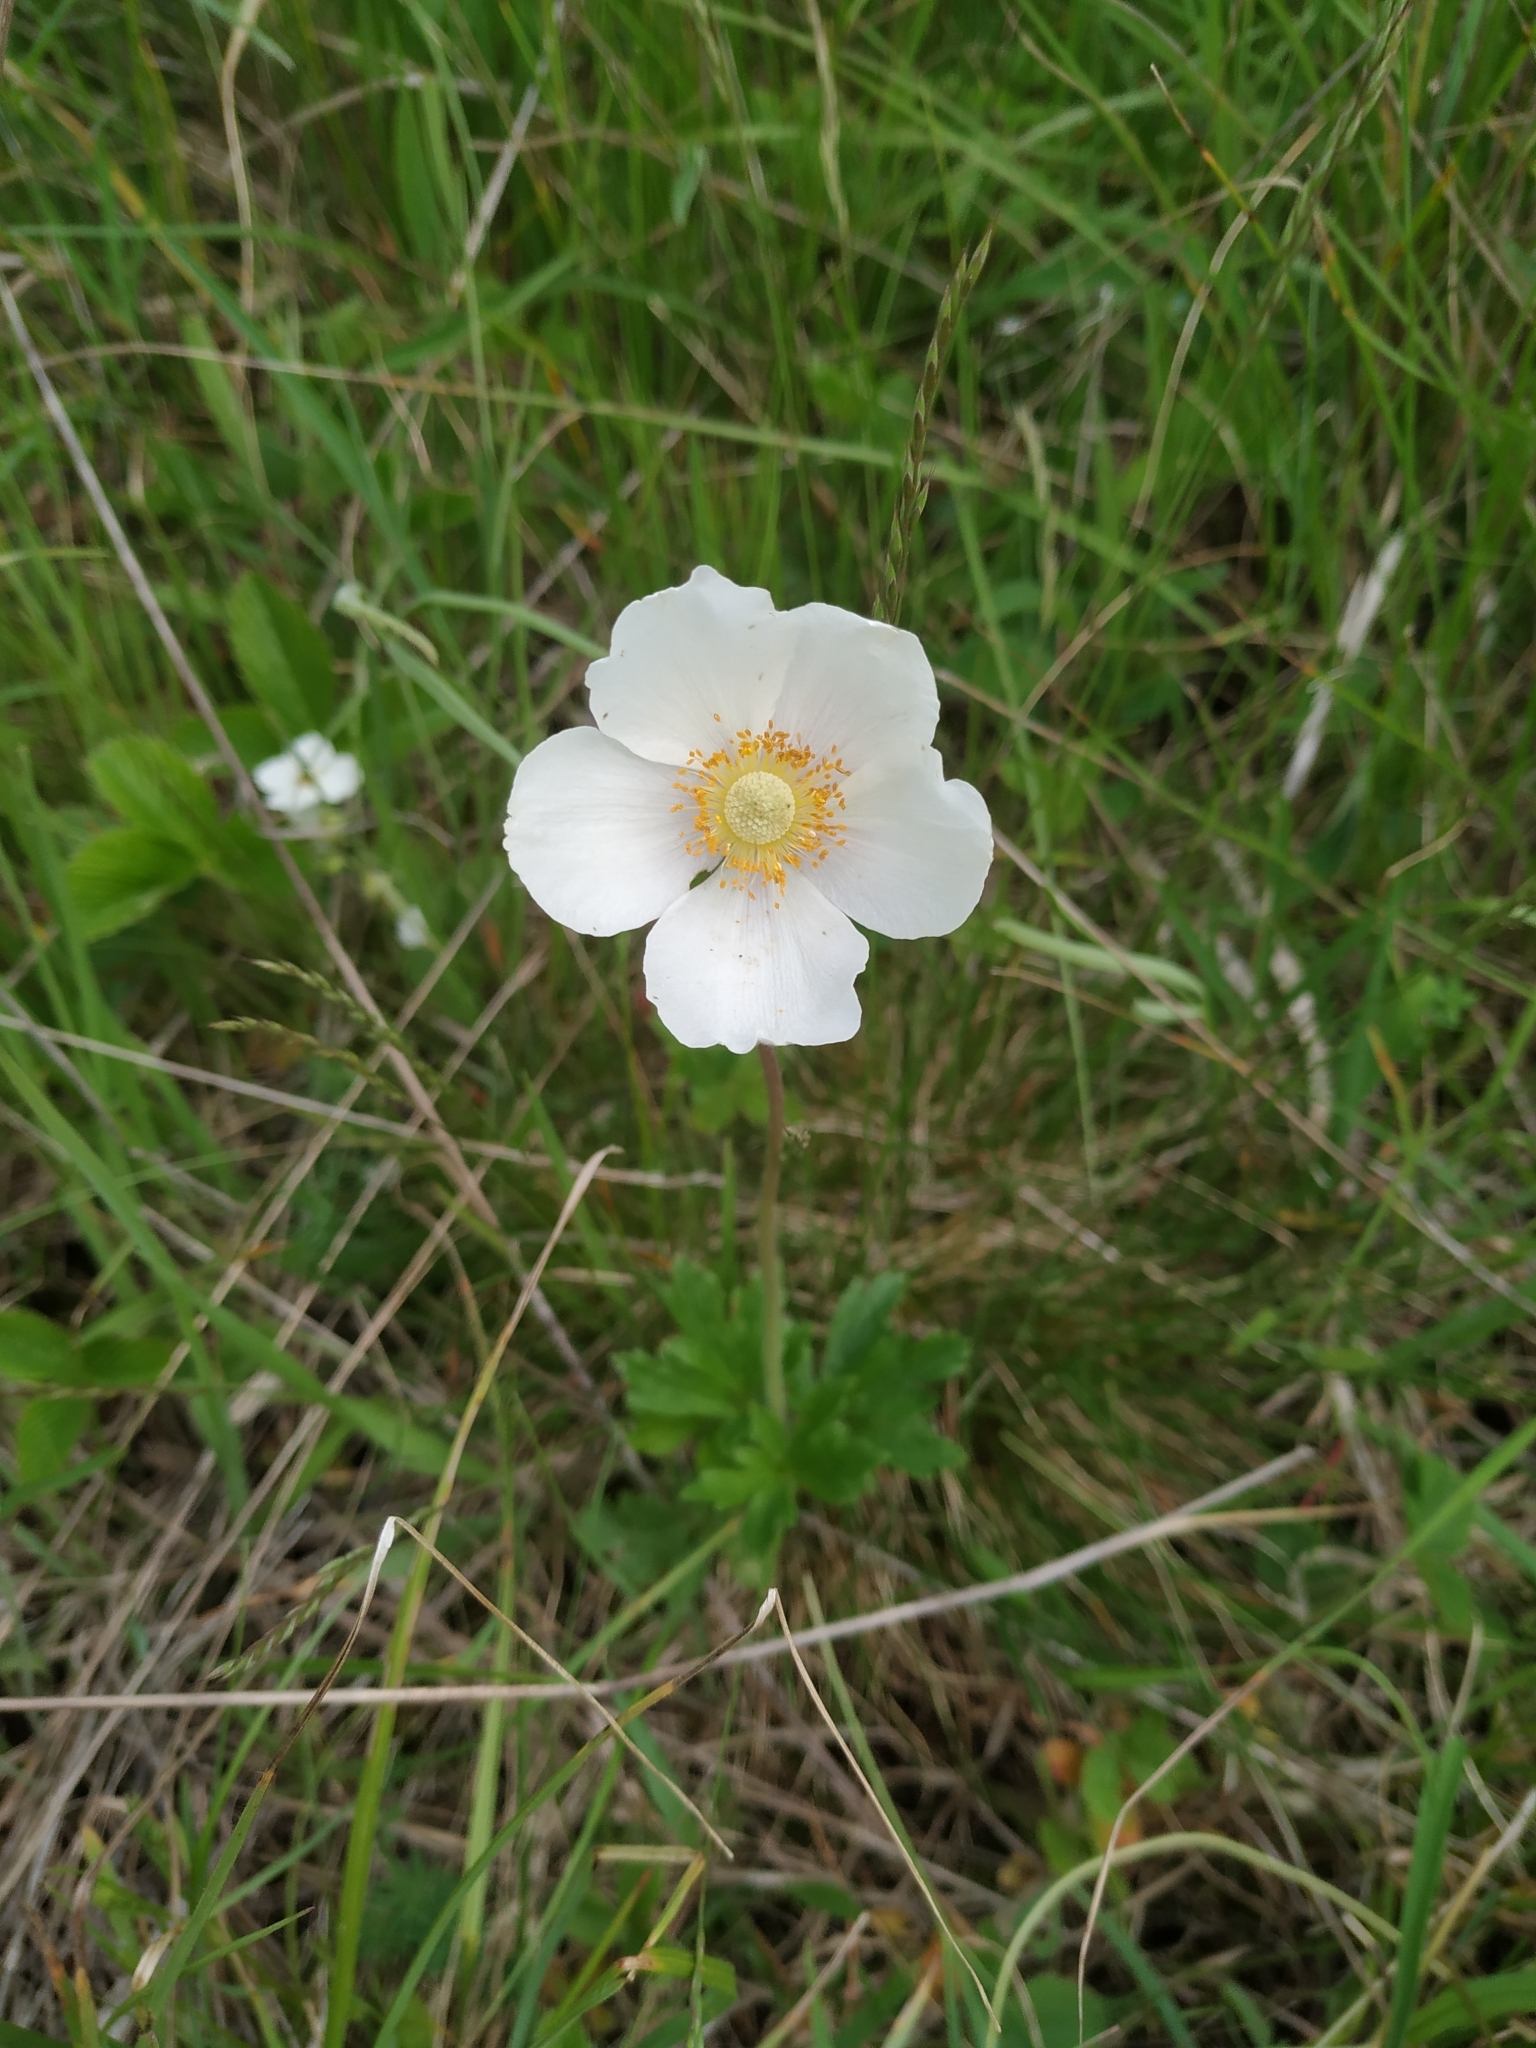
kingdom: Plantae
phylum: Tracheophyta
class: Magnoliopsida
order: Ranunculales
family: Ranunculaceae
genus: Anemone
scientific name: Anemone sylvestris
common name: Snowdrop anemone
